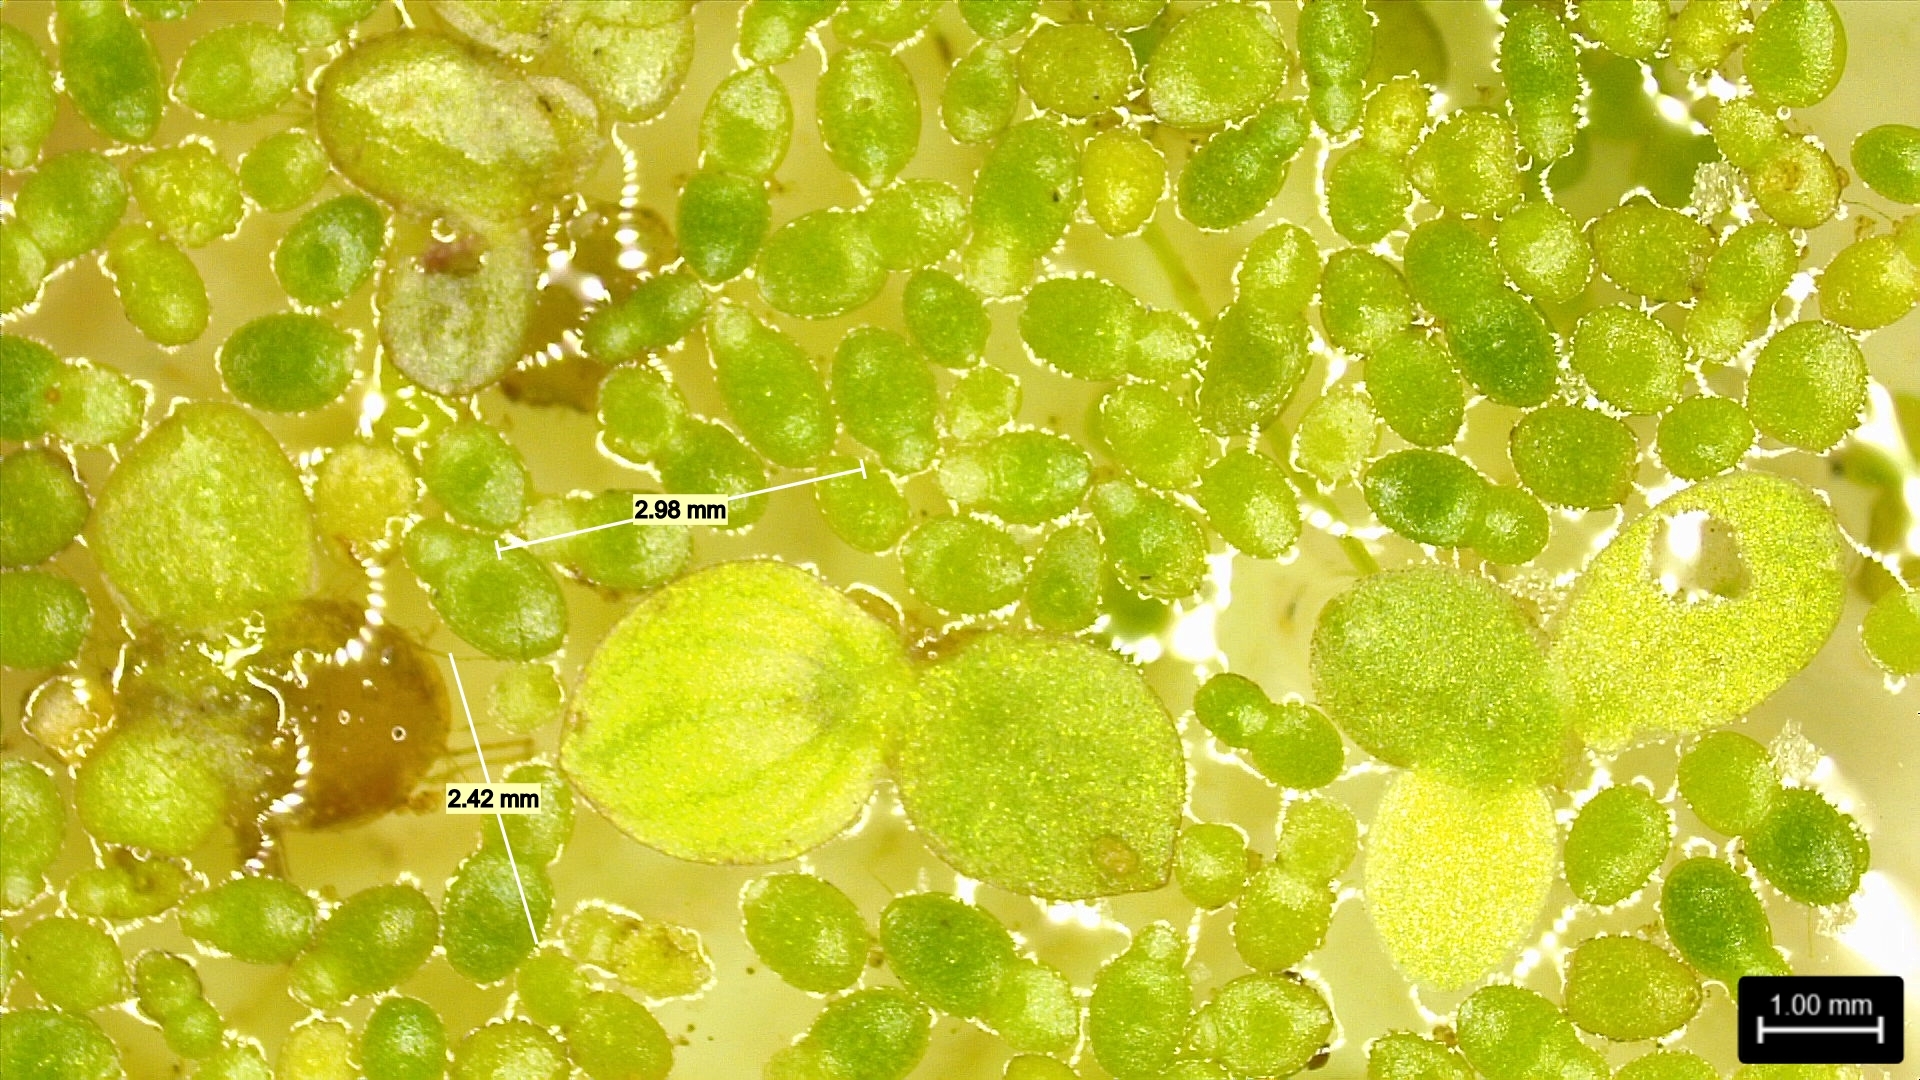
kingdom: Plantae
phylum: Tracheophyta
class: Liliopsida
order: Alismatales
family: Araceae
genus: Lemna
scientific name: Lemna aequinoctialis
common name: Duckweed
